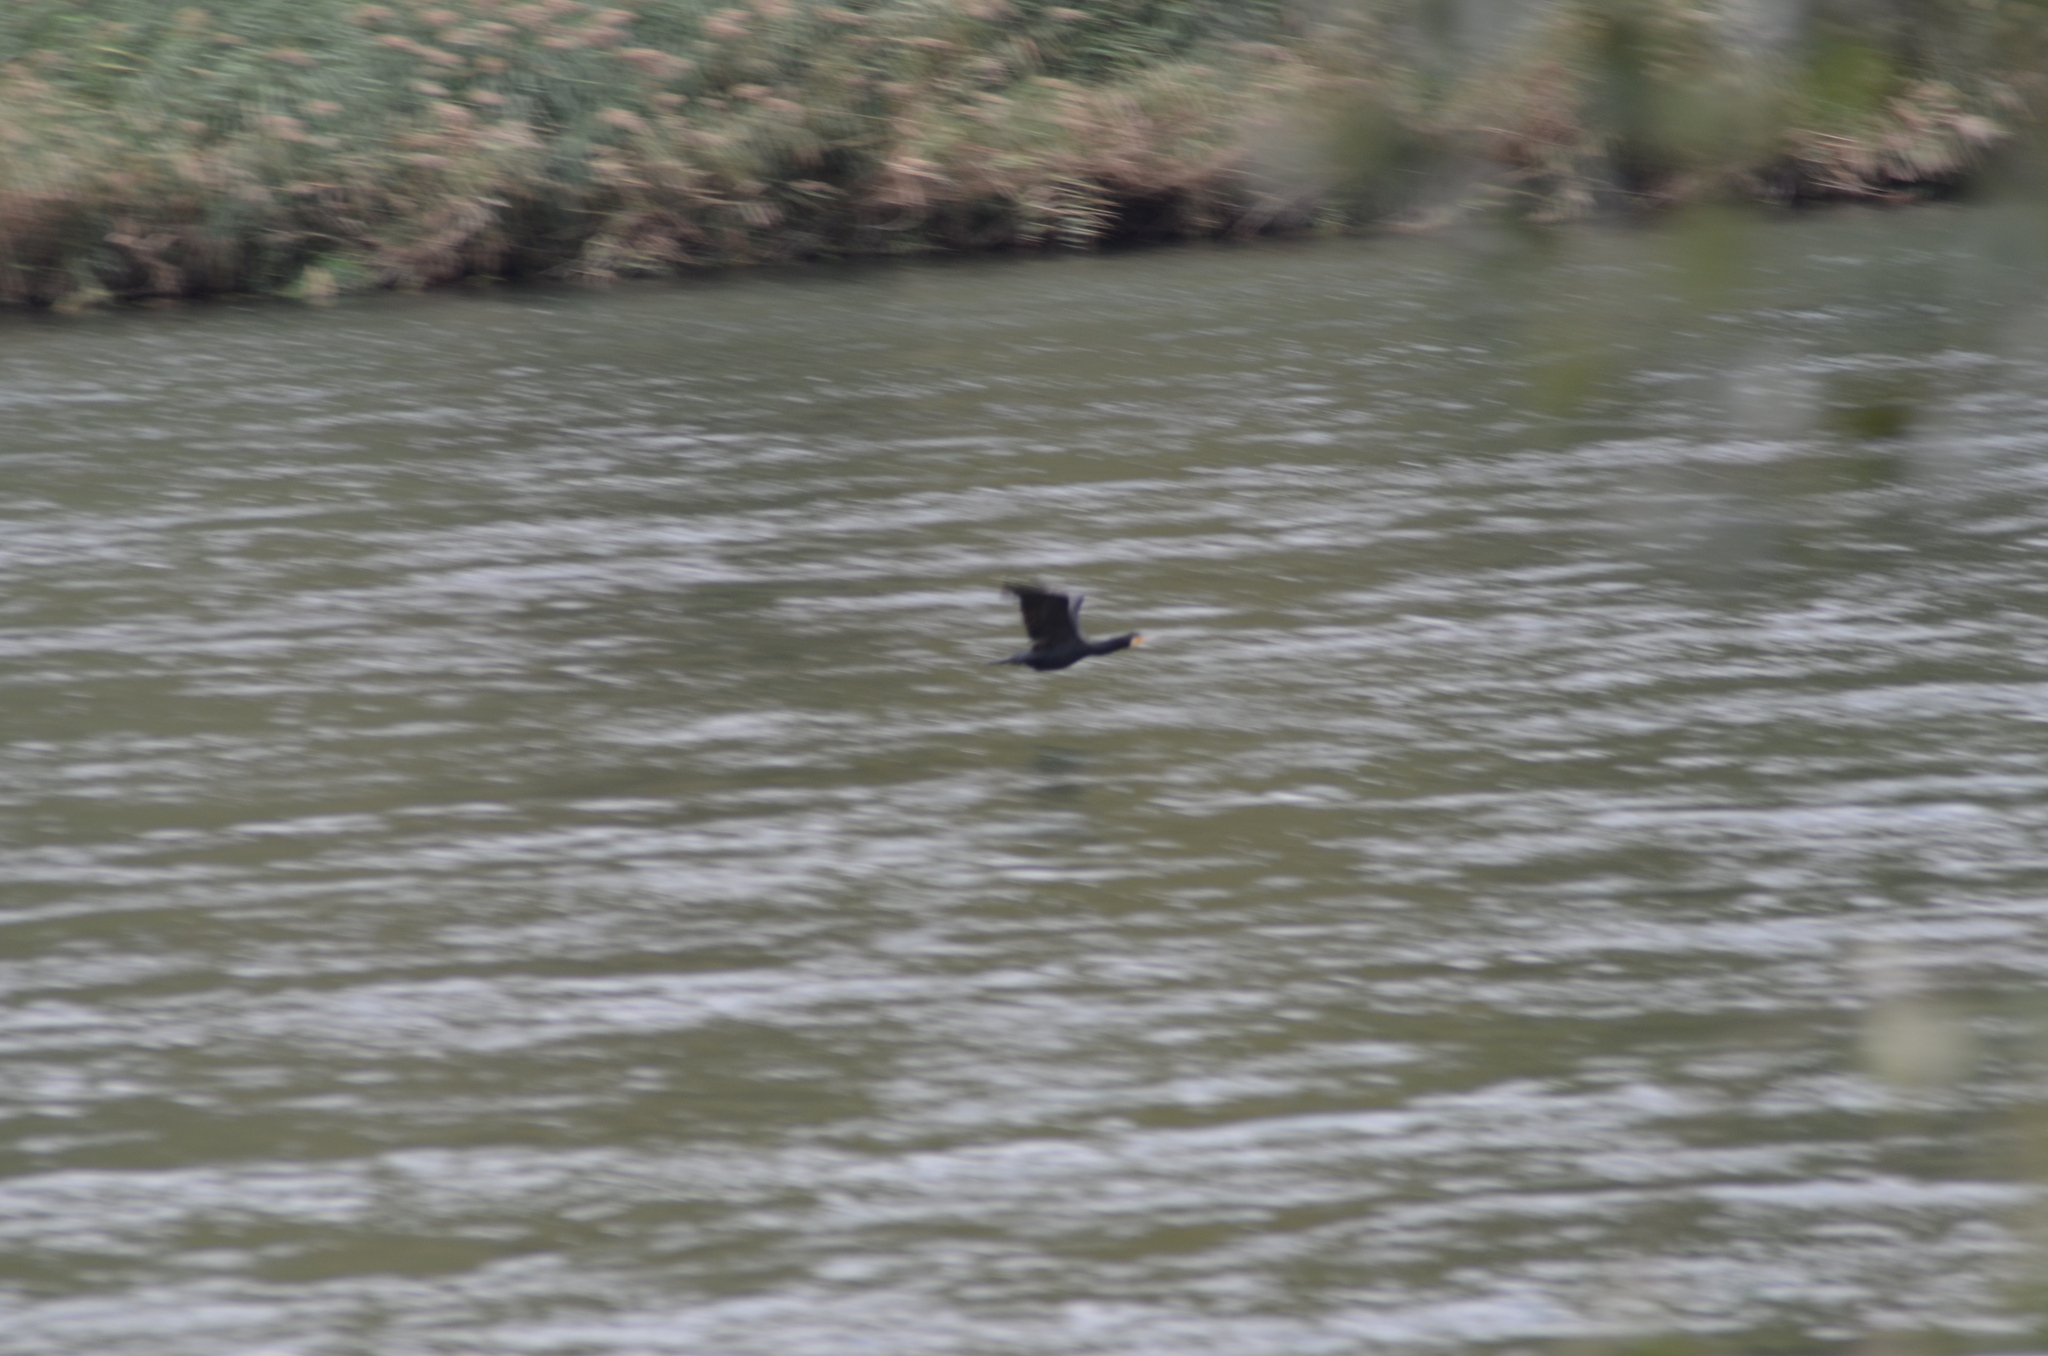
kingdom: Animalia
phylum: Chordata
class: Aves
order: Suliformes
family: Phalacrocoracidae
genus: Phalacrocorax
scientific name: Phalacrocorax carbo
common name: Great cormorant
